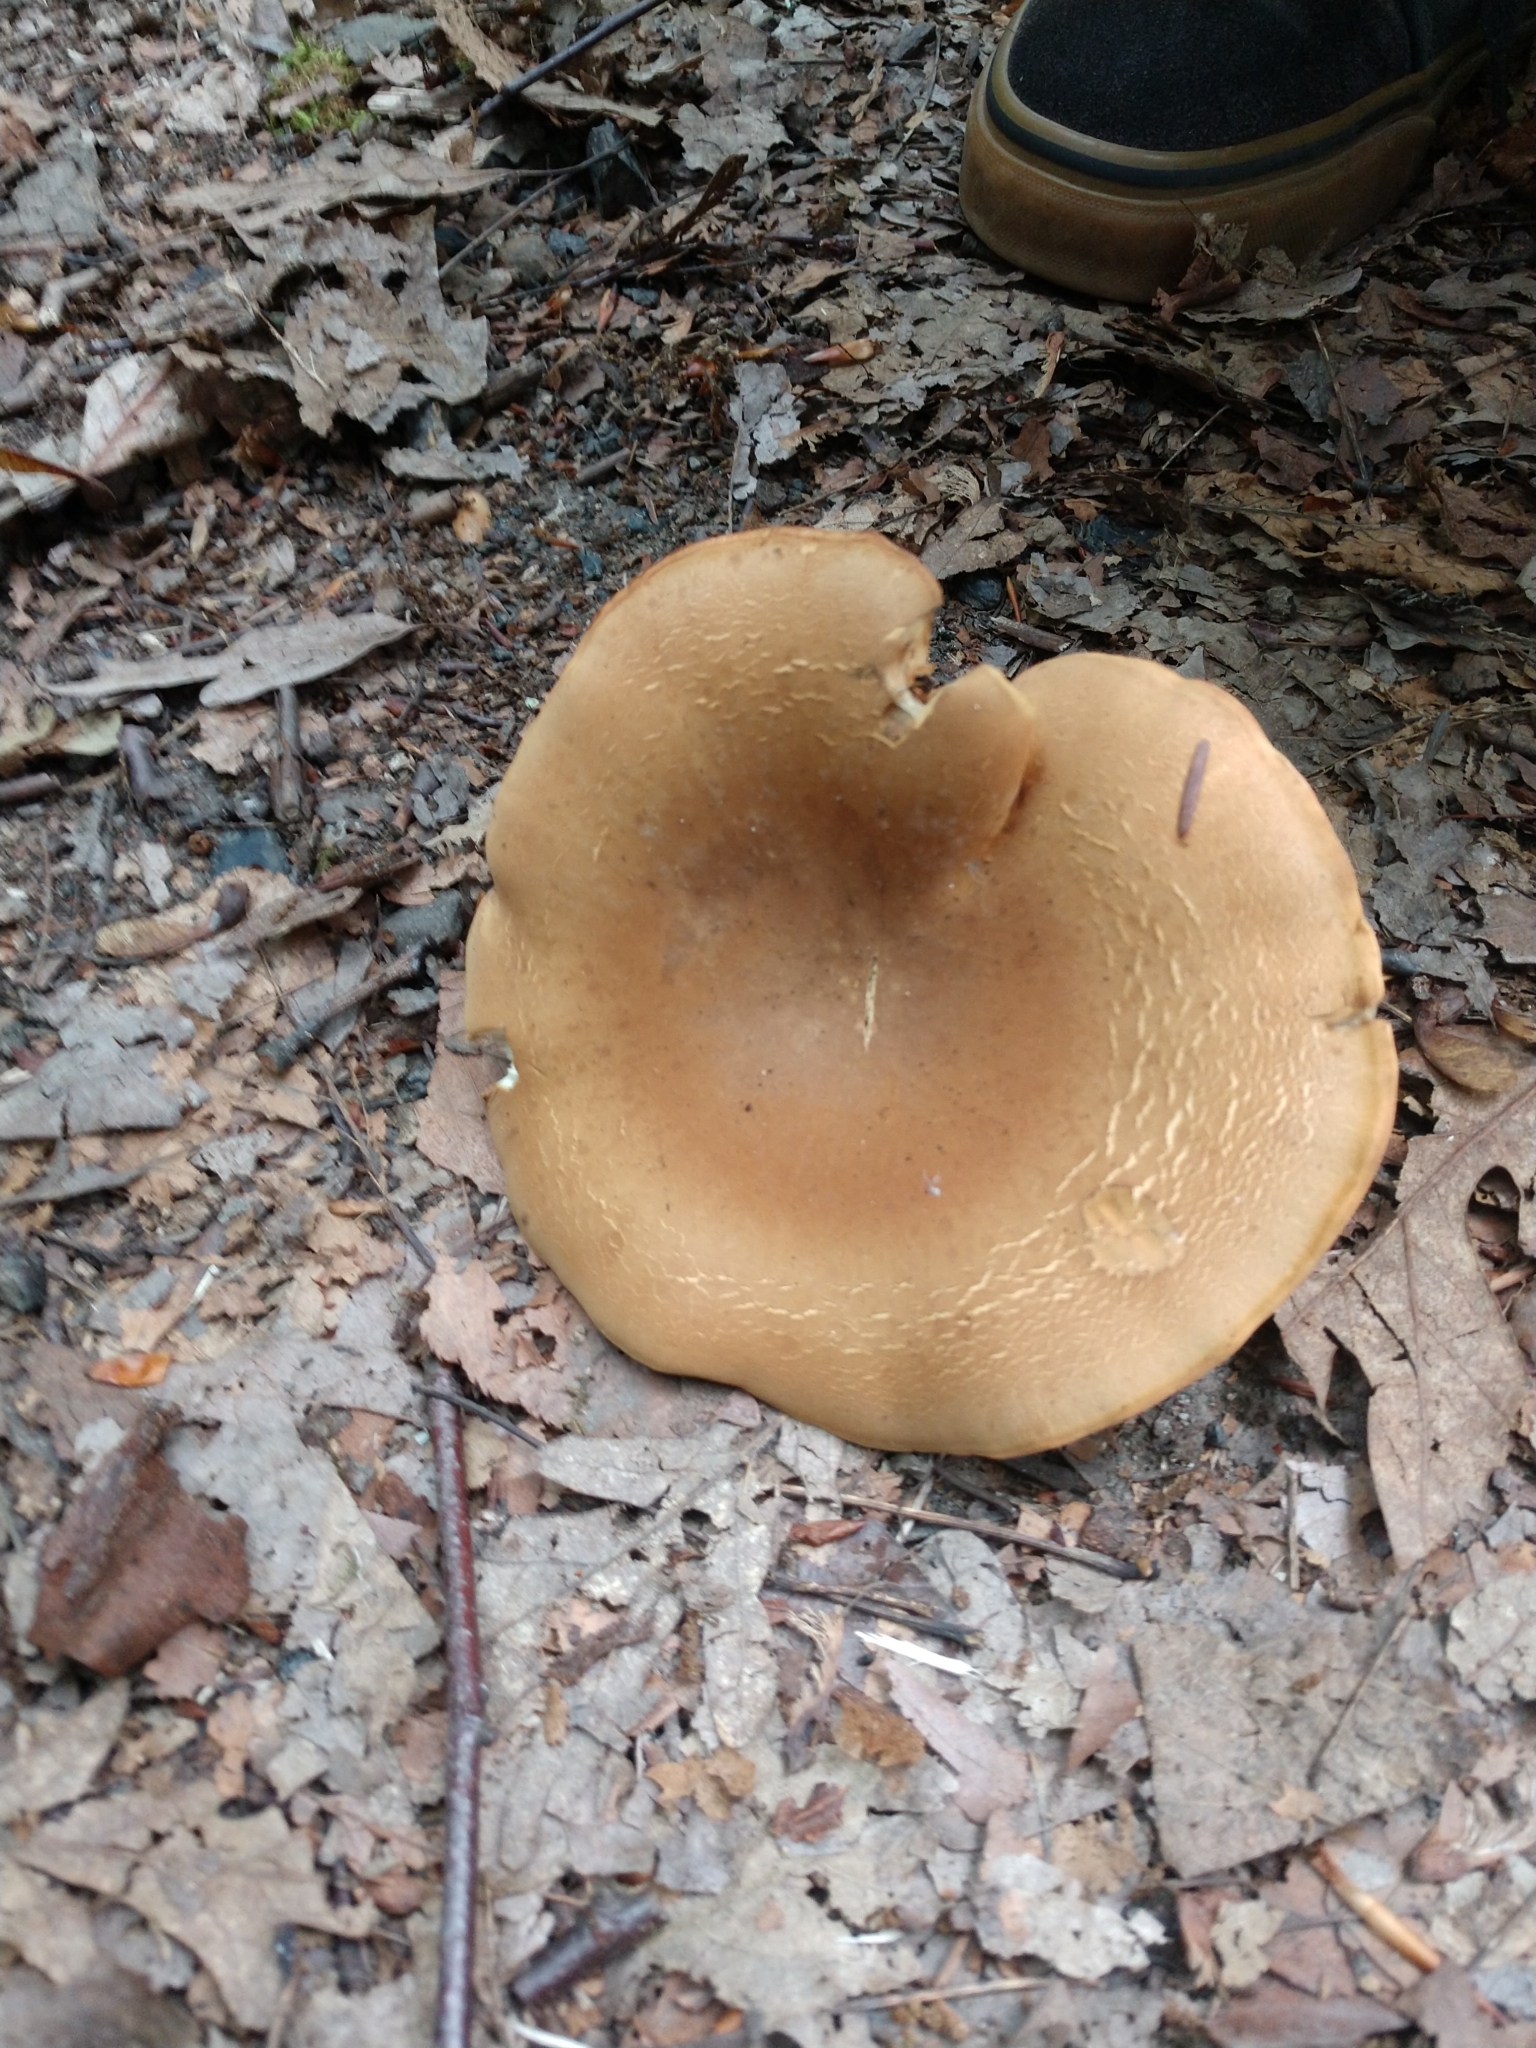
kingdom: Fungi
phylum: Basidiomycota
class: Agaricomycetes
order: Boletales
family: Tapinellaceae
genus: Tapinella
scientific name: Tapinella atrotomentosa
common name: Velvet rollrim
